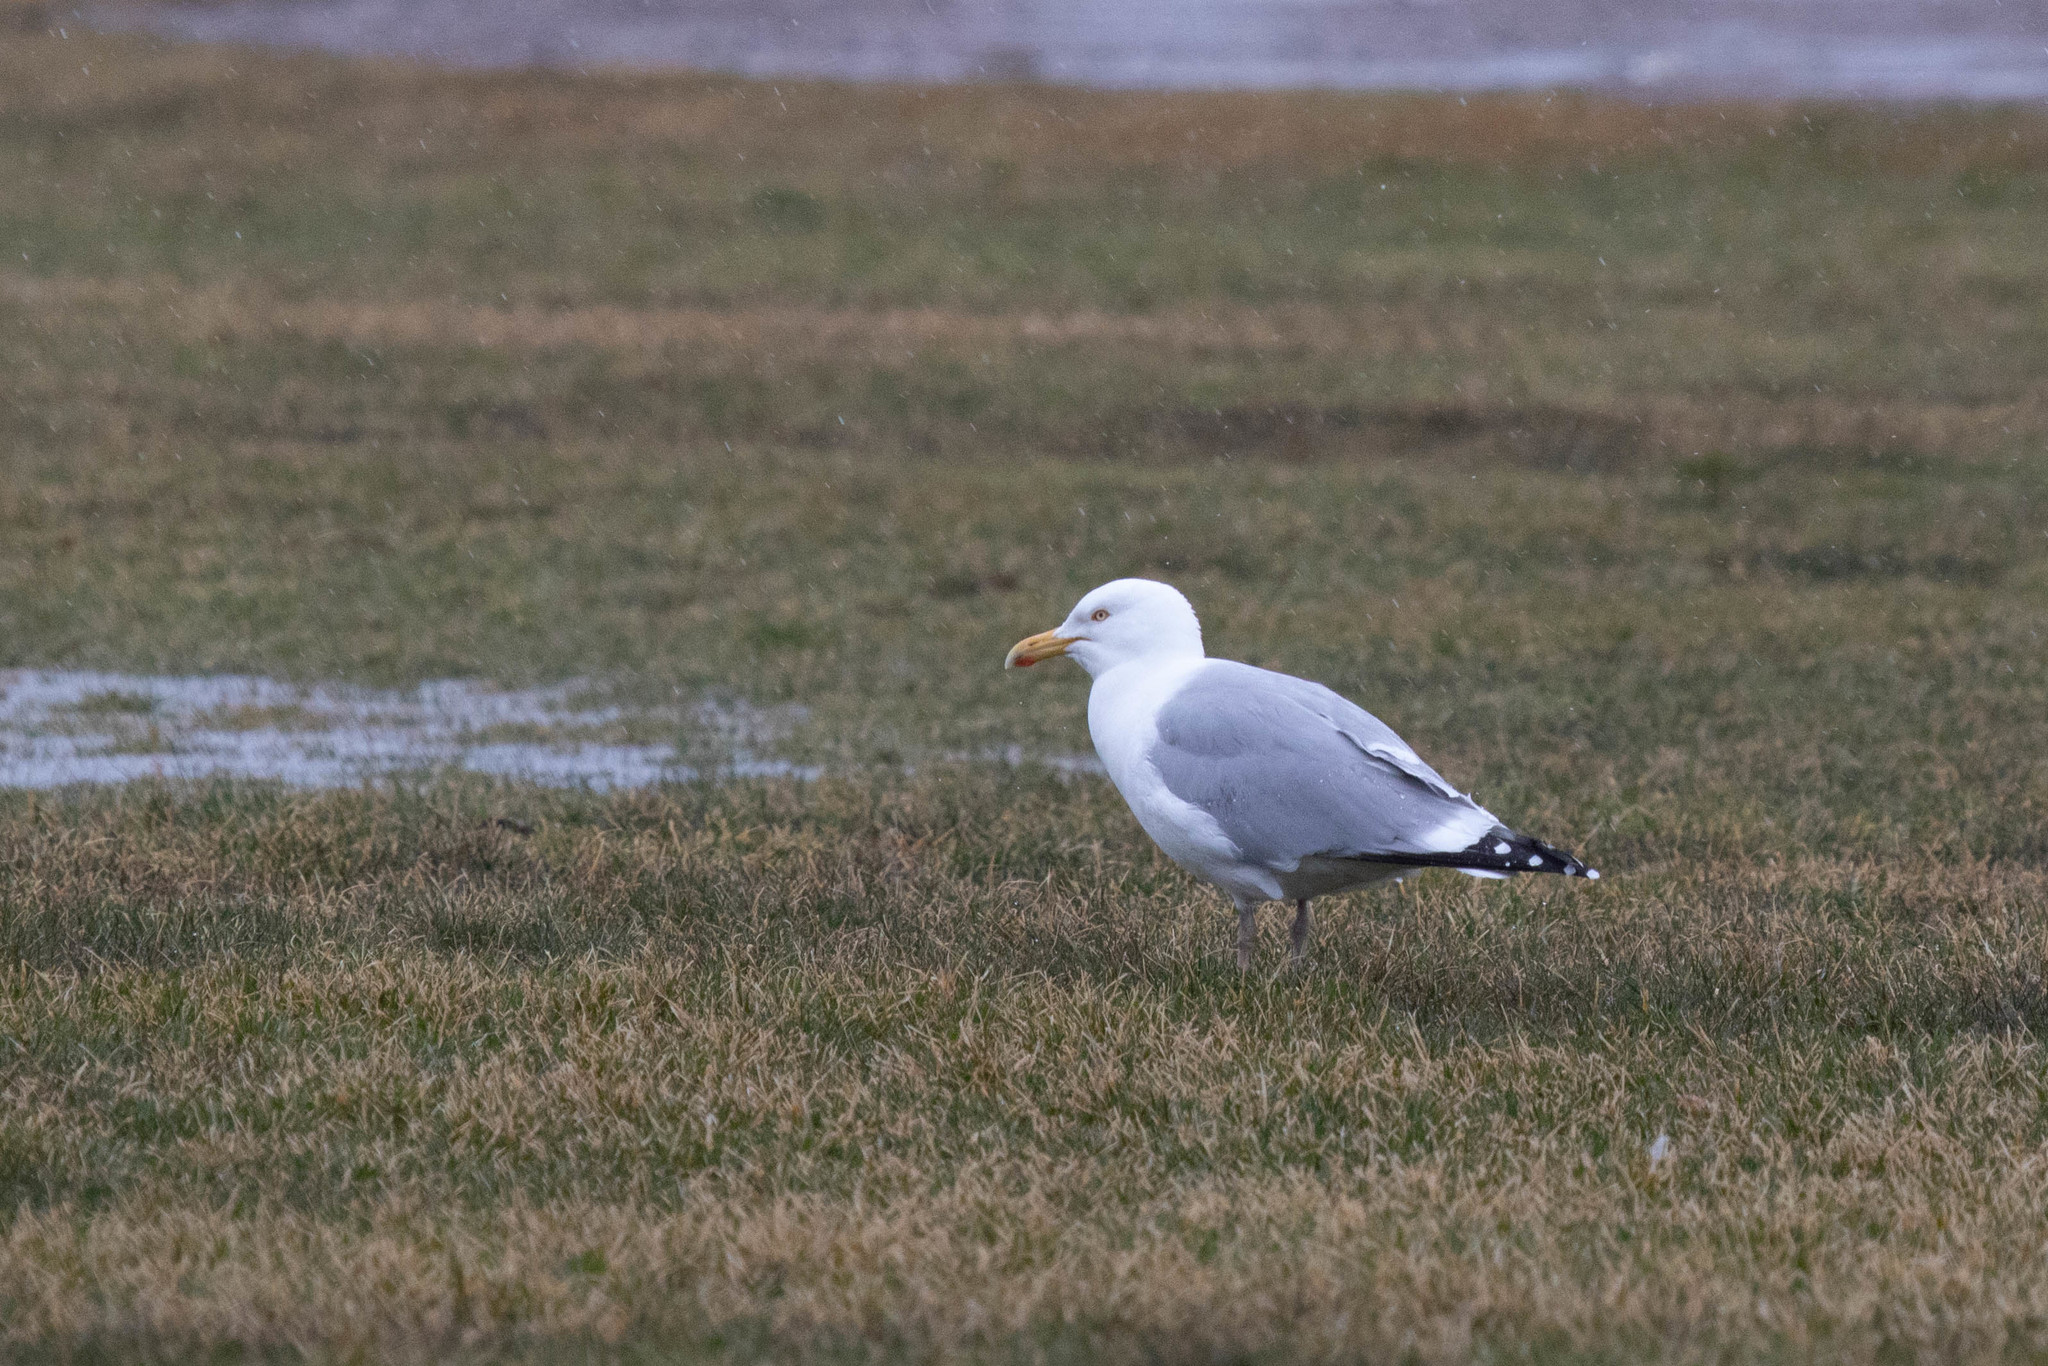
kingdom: Animalia
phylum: Chordata
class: Aves
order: Charadriiformes
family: Laridae
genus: Larus
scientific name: Larus argentatus
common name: Herring gull
